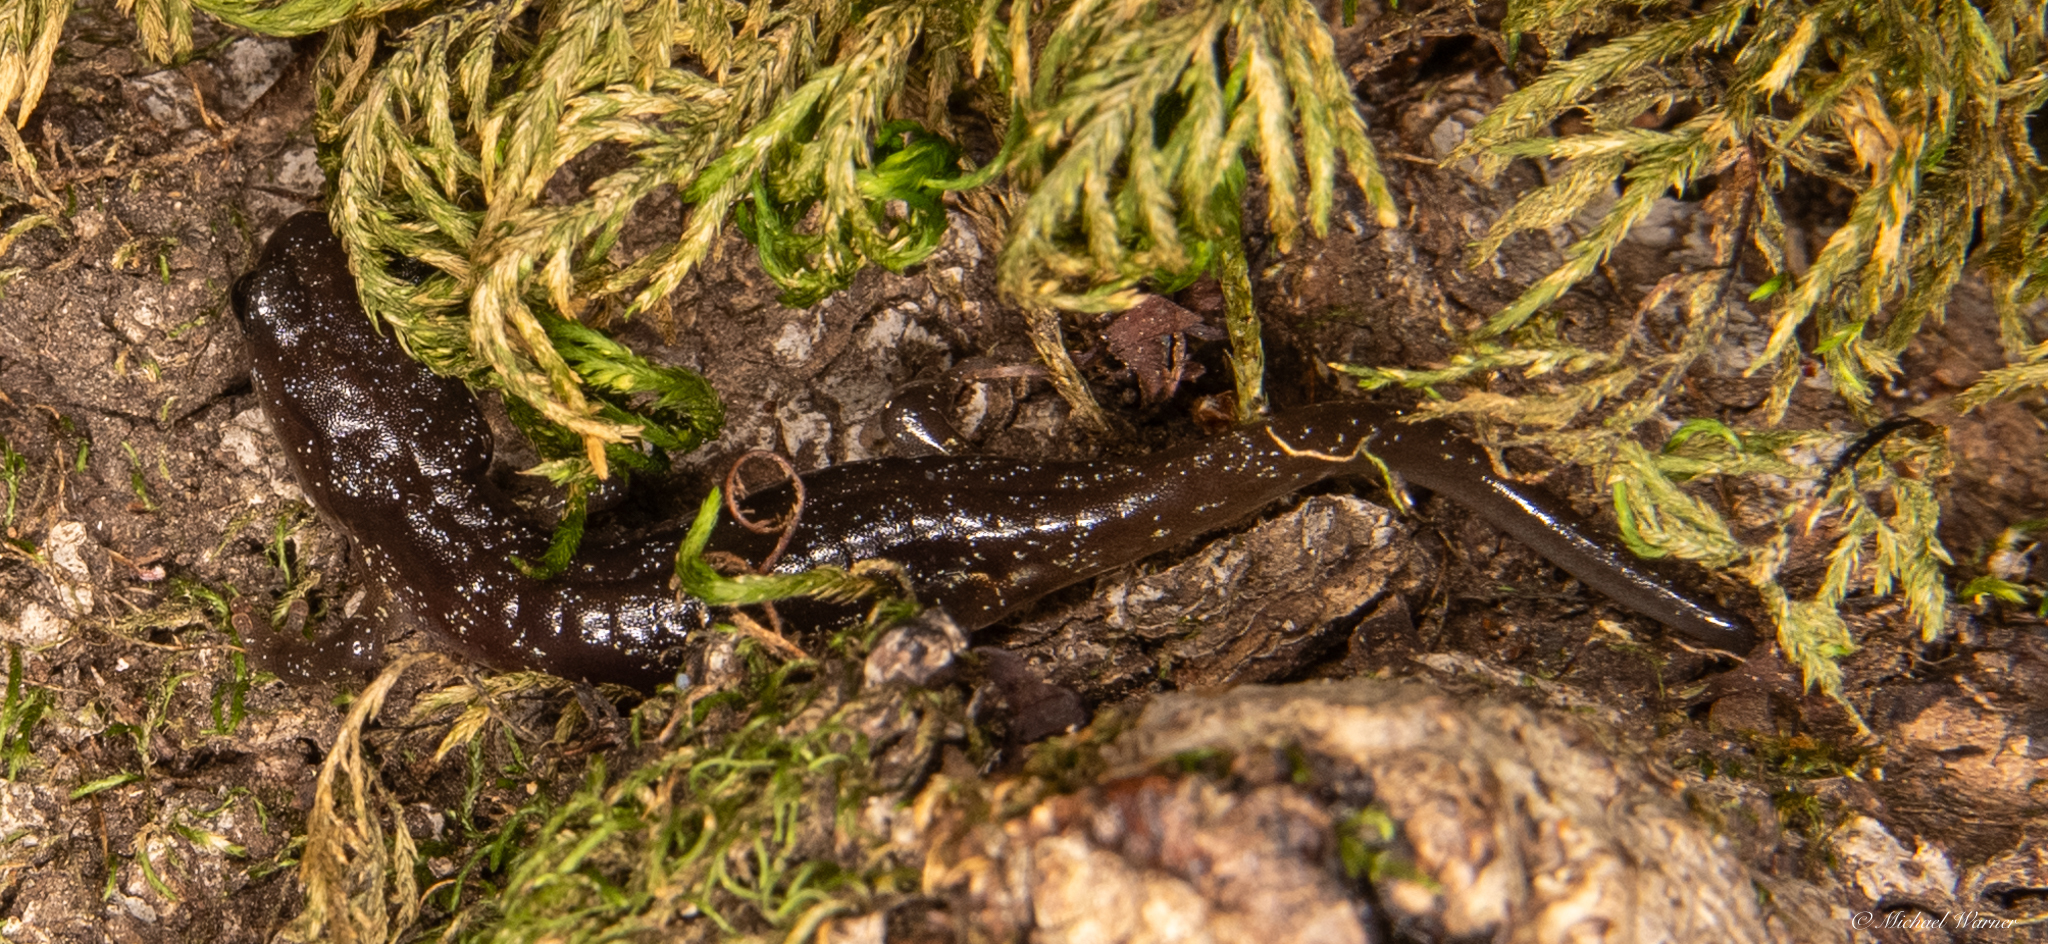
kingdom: Animalia
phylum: Chordata
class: Amphibia
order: Caudata
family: Plethodontidae
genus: Aneides
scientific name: Aneides lugubris
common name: Arboreal salamander
